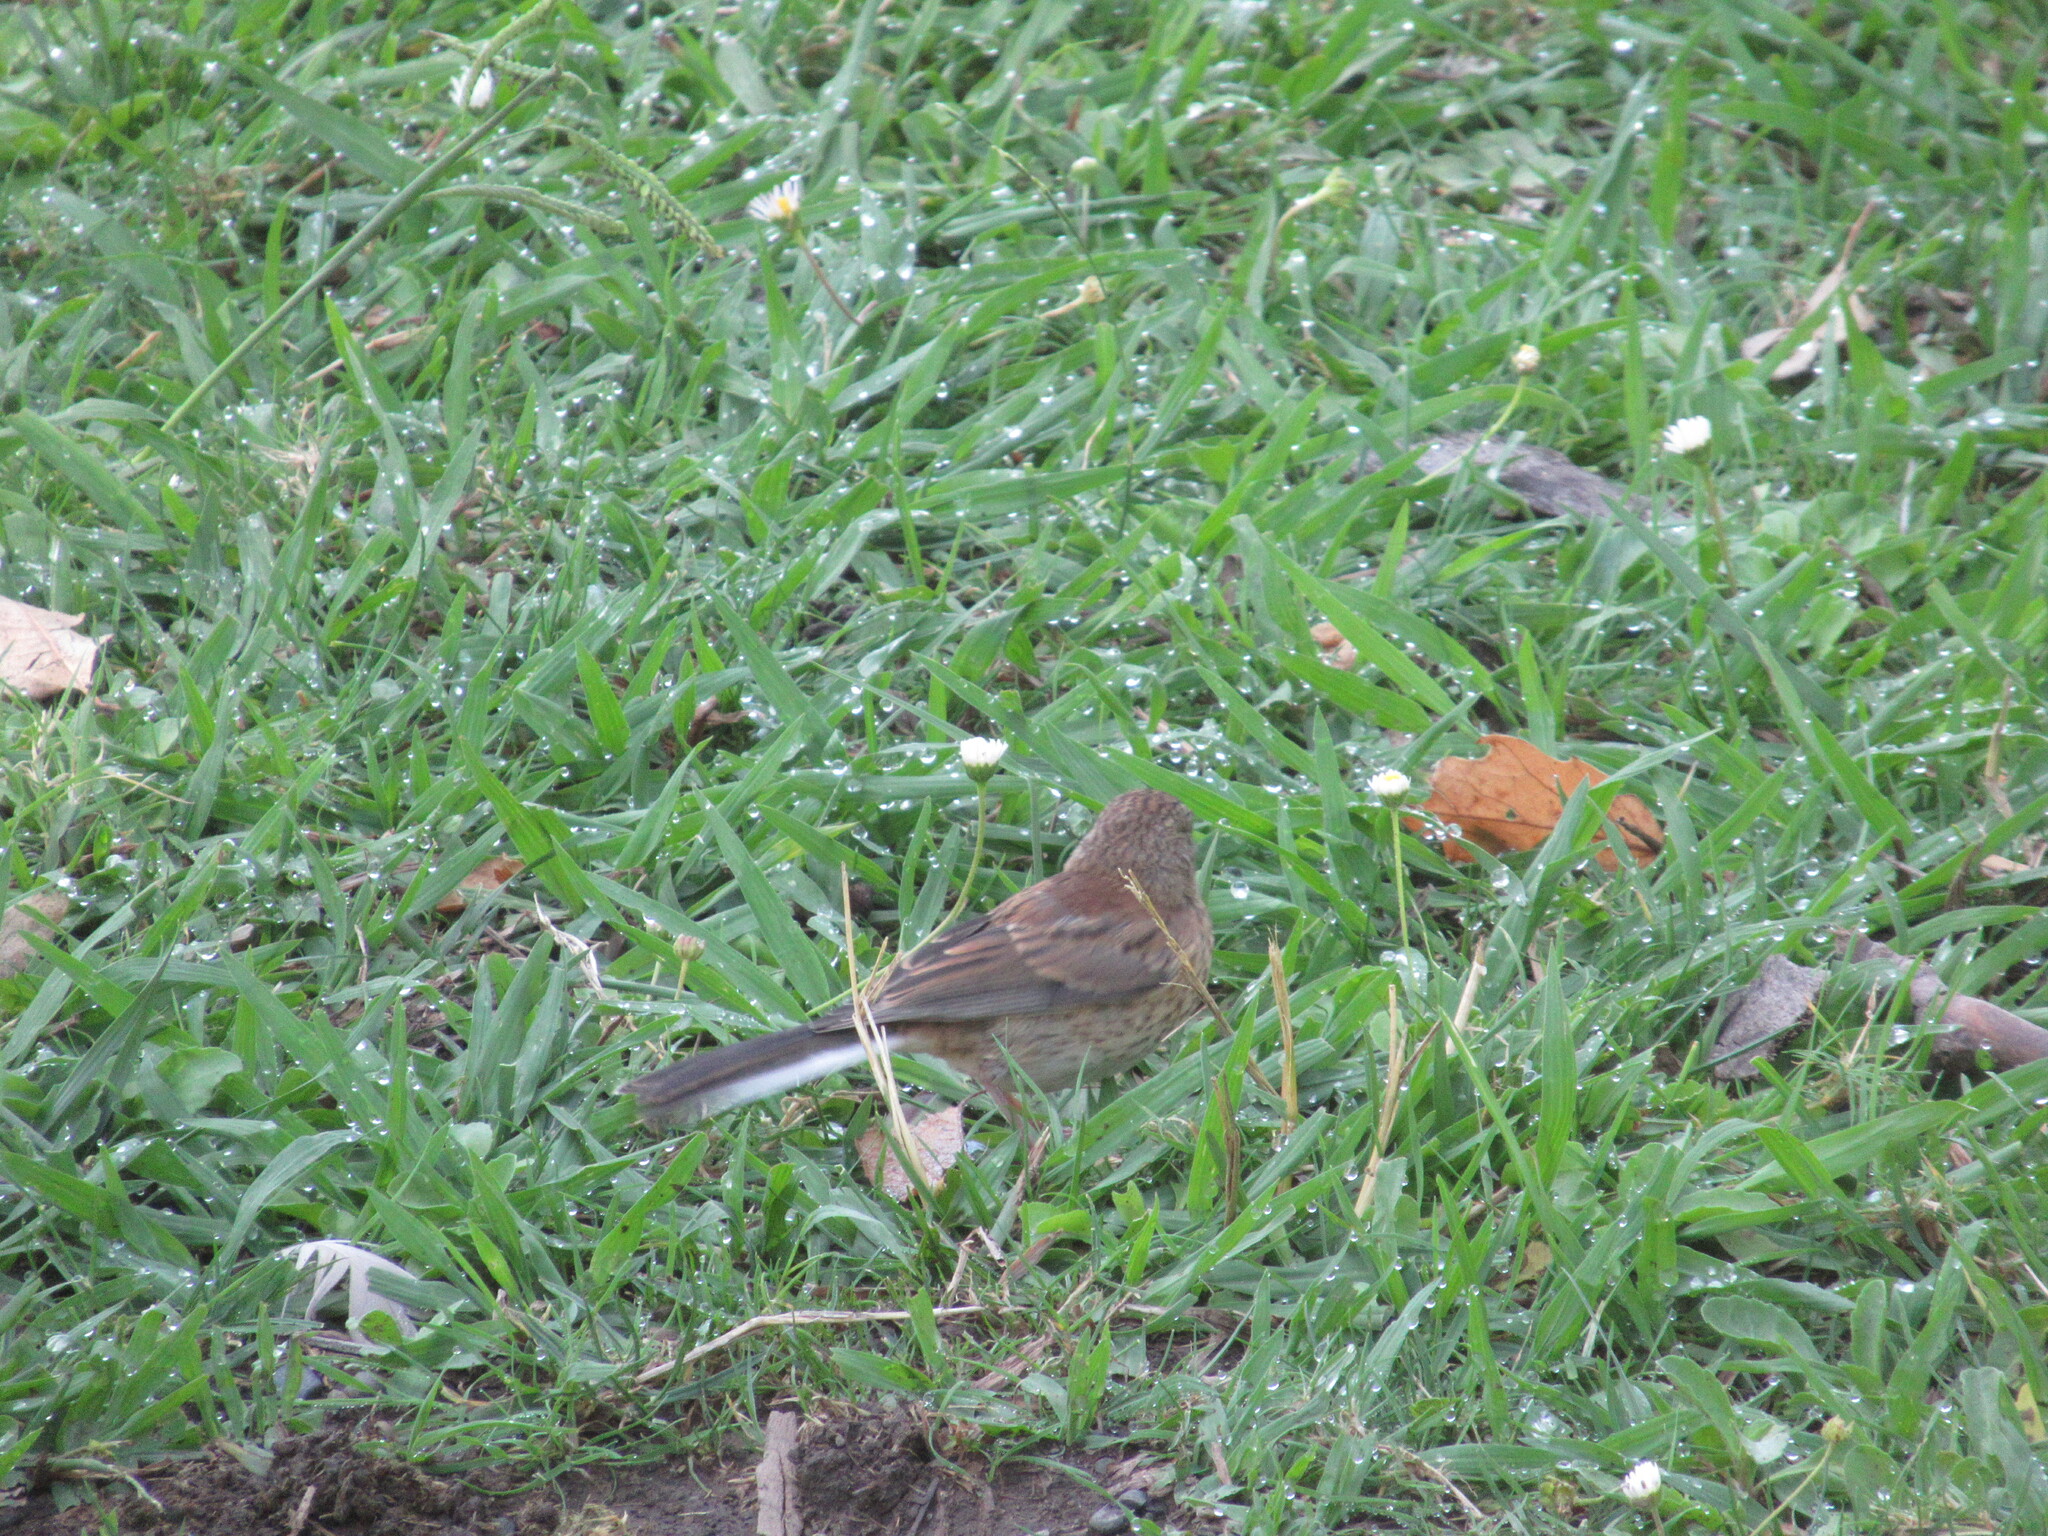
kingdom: Animalia
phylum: Chordata
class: Aves
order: Passeriformes
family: Passerellidae
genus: Junco
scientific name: Junco hyemalis
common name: Dark-eyed junco
